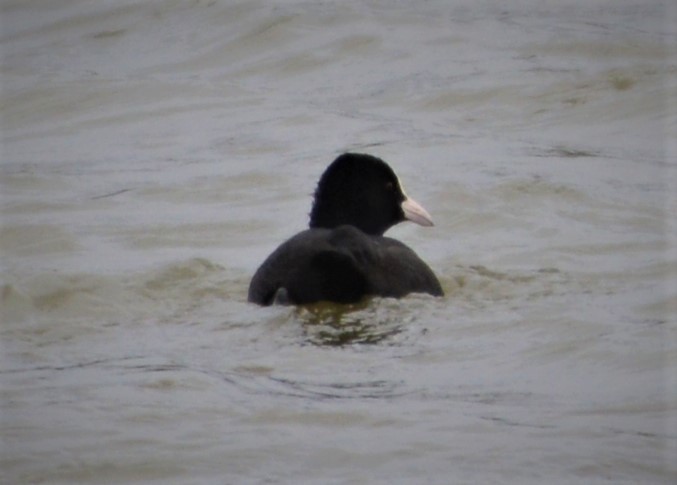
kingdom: Animalia
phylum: Chordata
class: Aves
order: Gruiformes
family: Rallidae
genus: Fulica
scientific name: Fulica atra
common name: Eurasian coot
